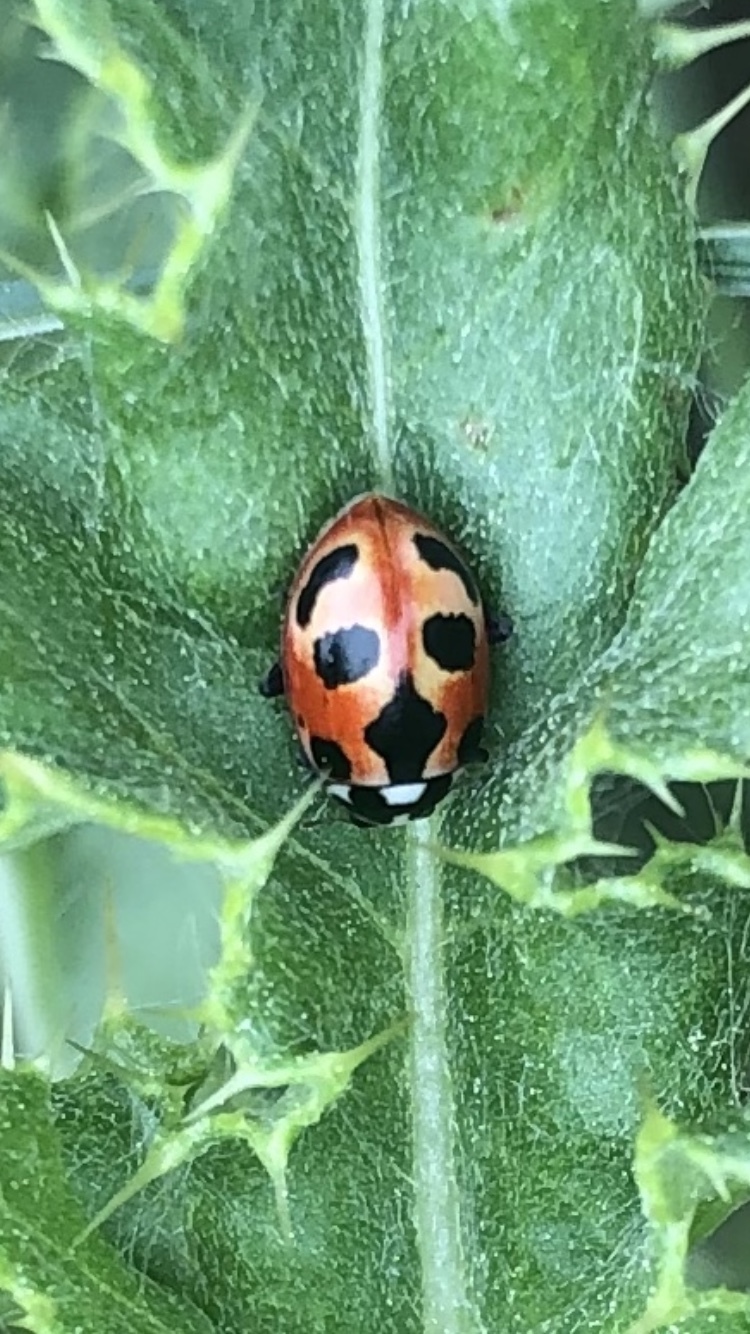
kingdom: Animalia
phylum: Arthropoda
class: Insecta
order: Coleoptera
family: Coccinellidae
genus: Hippodamia
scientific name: Hippodamia parenthesis
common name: Parenthesis lady beetle
